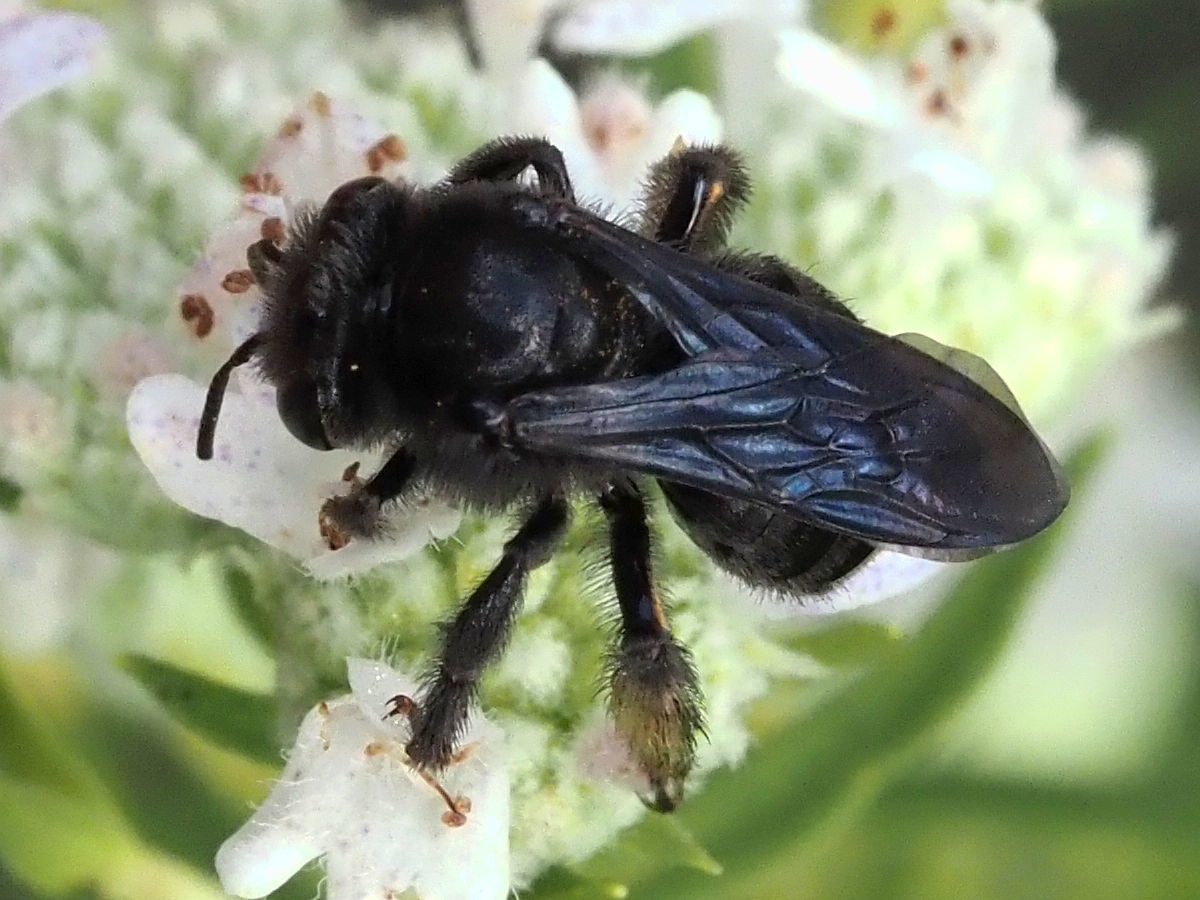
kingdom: Animalia
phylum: Arthropoda
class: Insecta
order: Hymenoptera
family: Apidae
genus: Melissodes
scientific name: Melissodes bimaculatus
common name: Two-spotted long-horned bee
